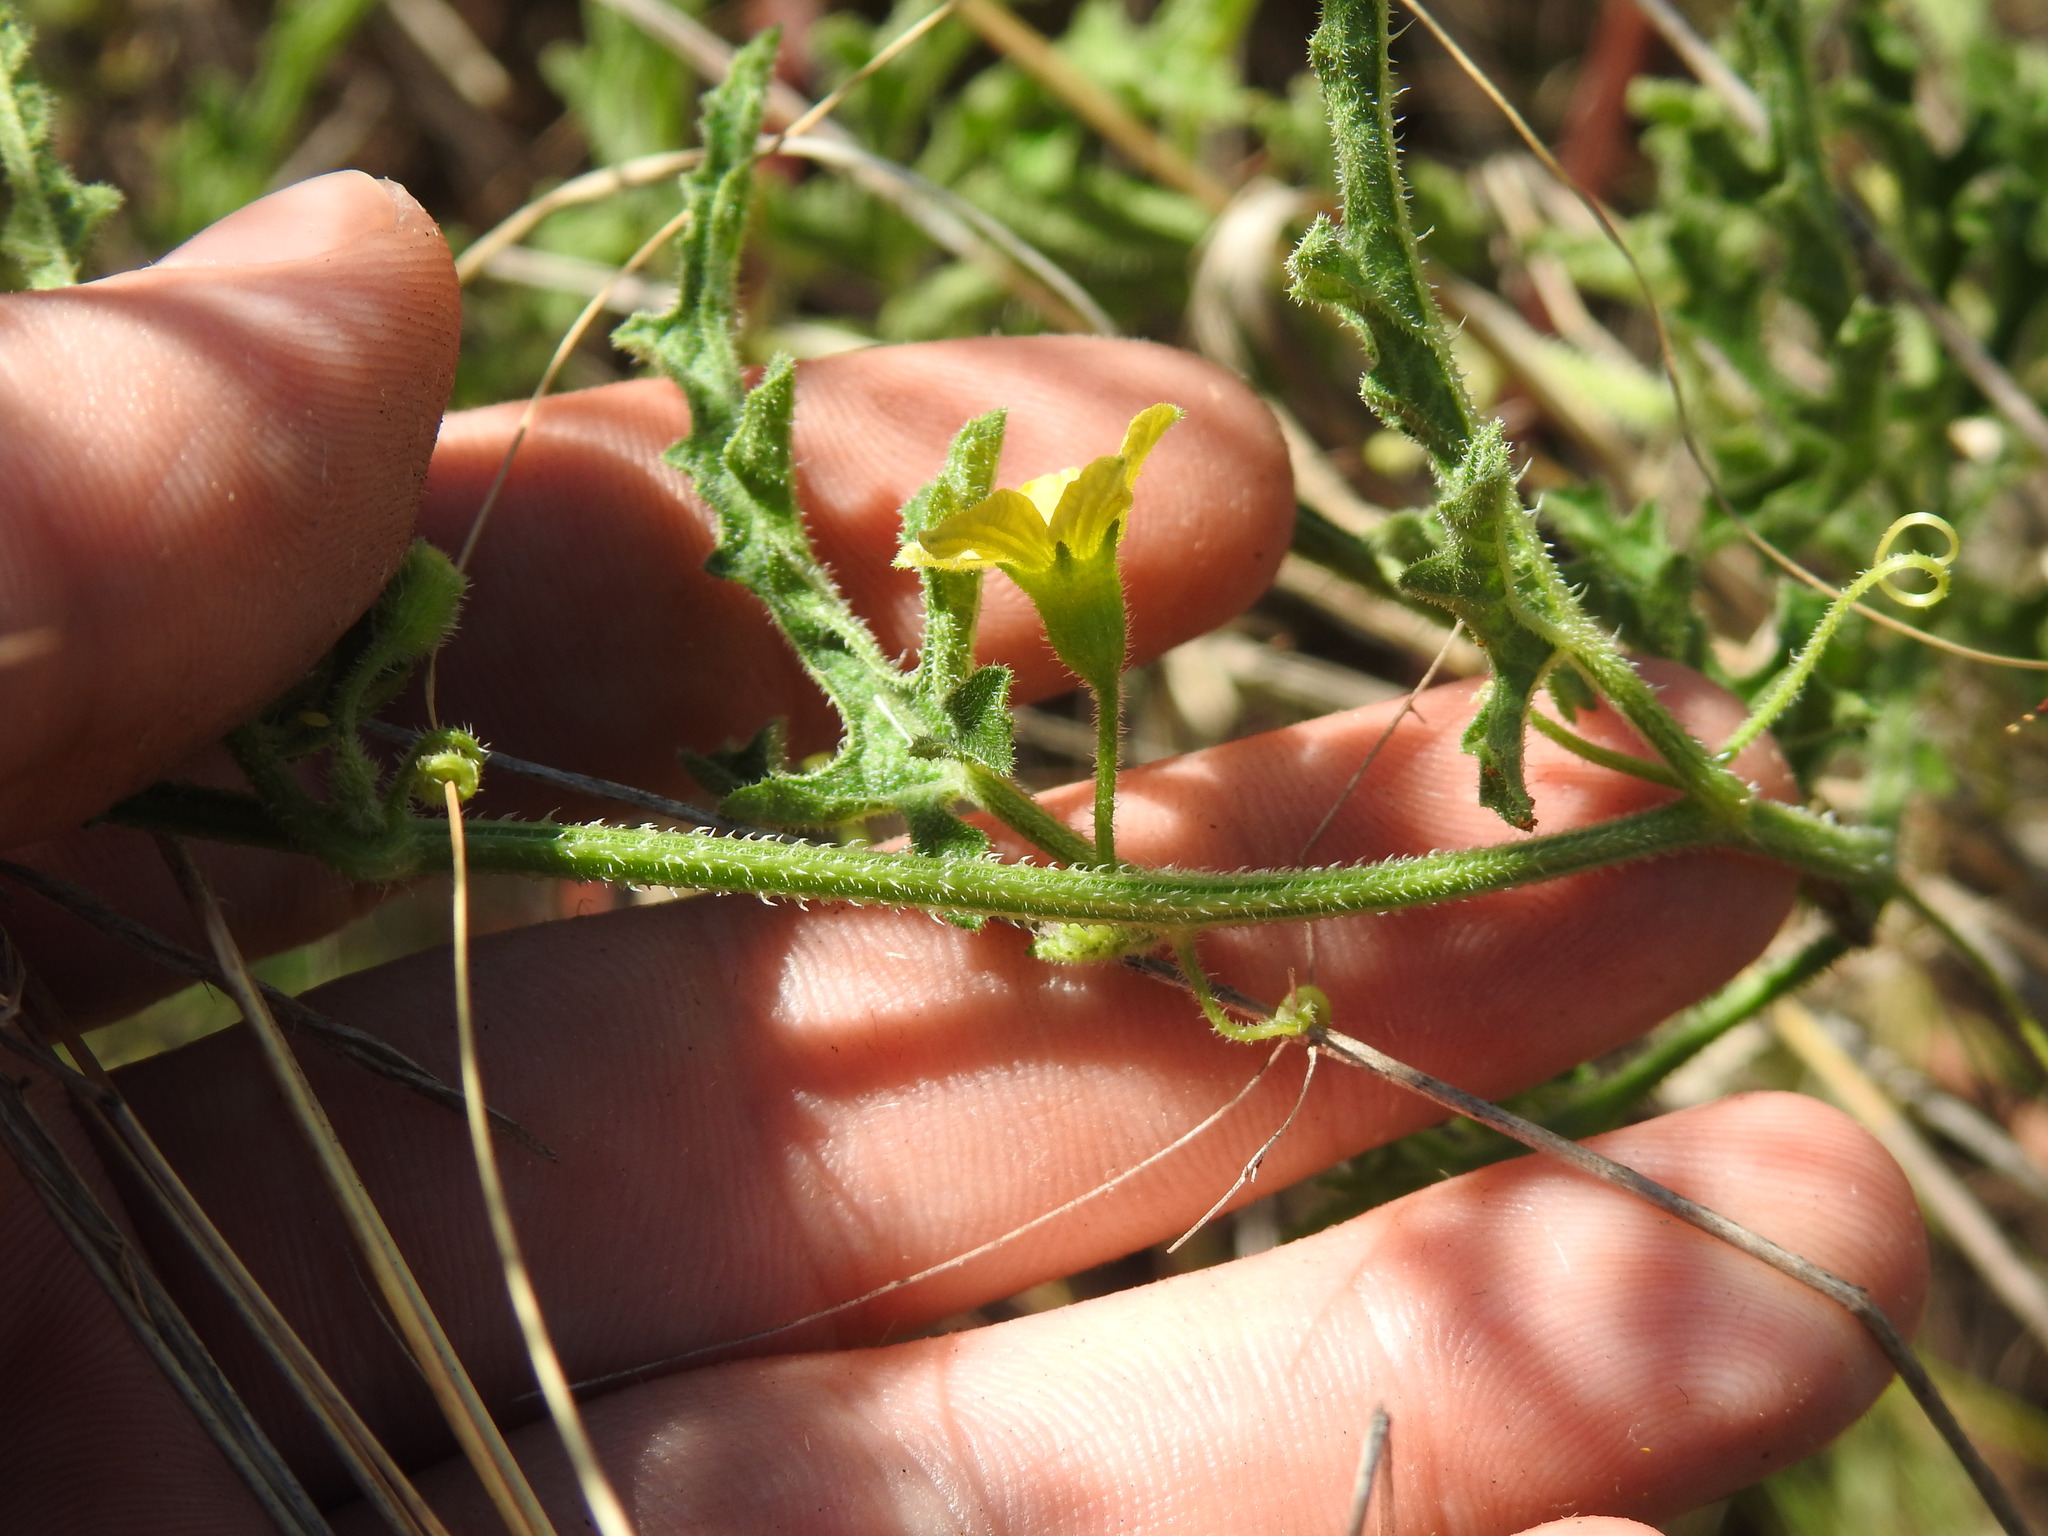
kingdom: Plantae
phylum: Tracheophyta
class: Magnoliopsida
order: Cucurbitales
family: Cucurbitaceae
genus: Cucumis
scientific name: Cucumis zeyheri
